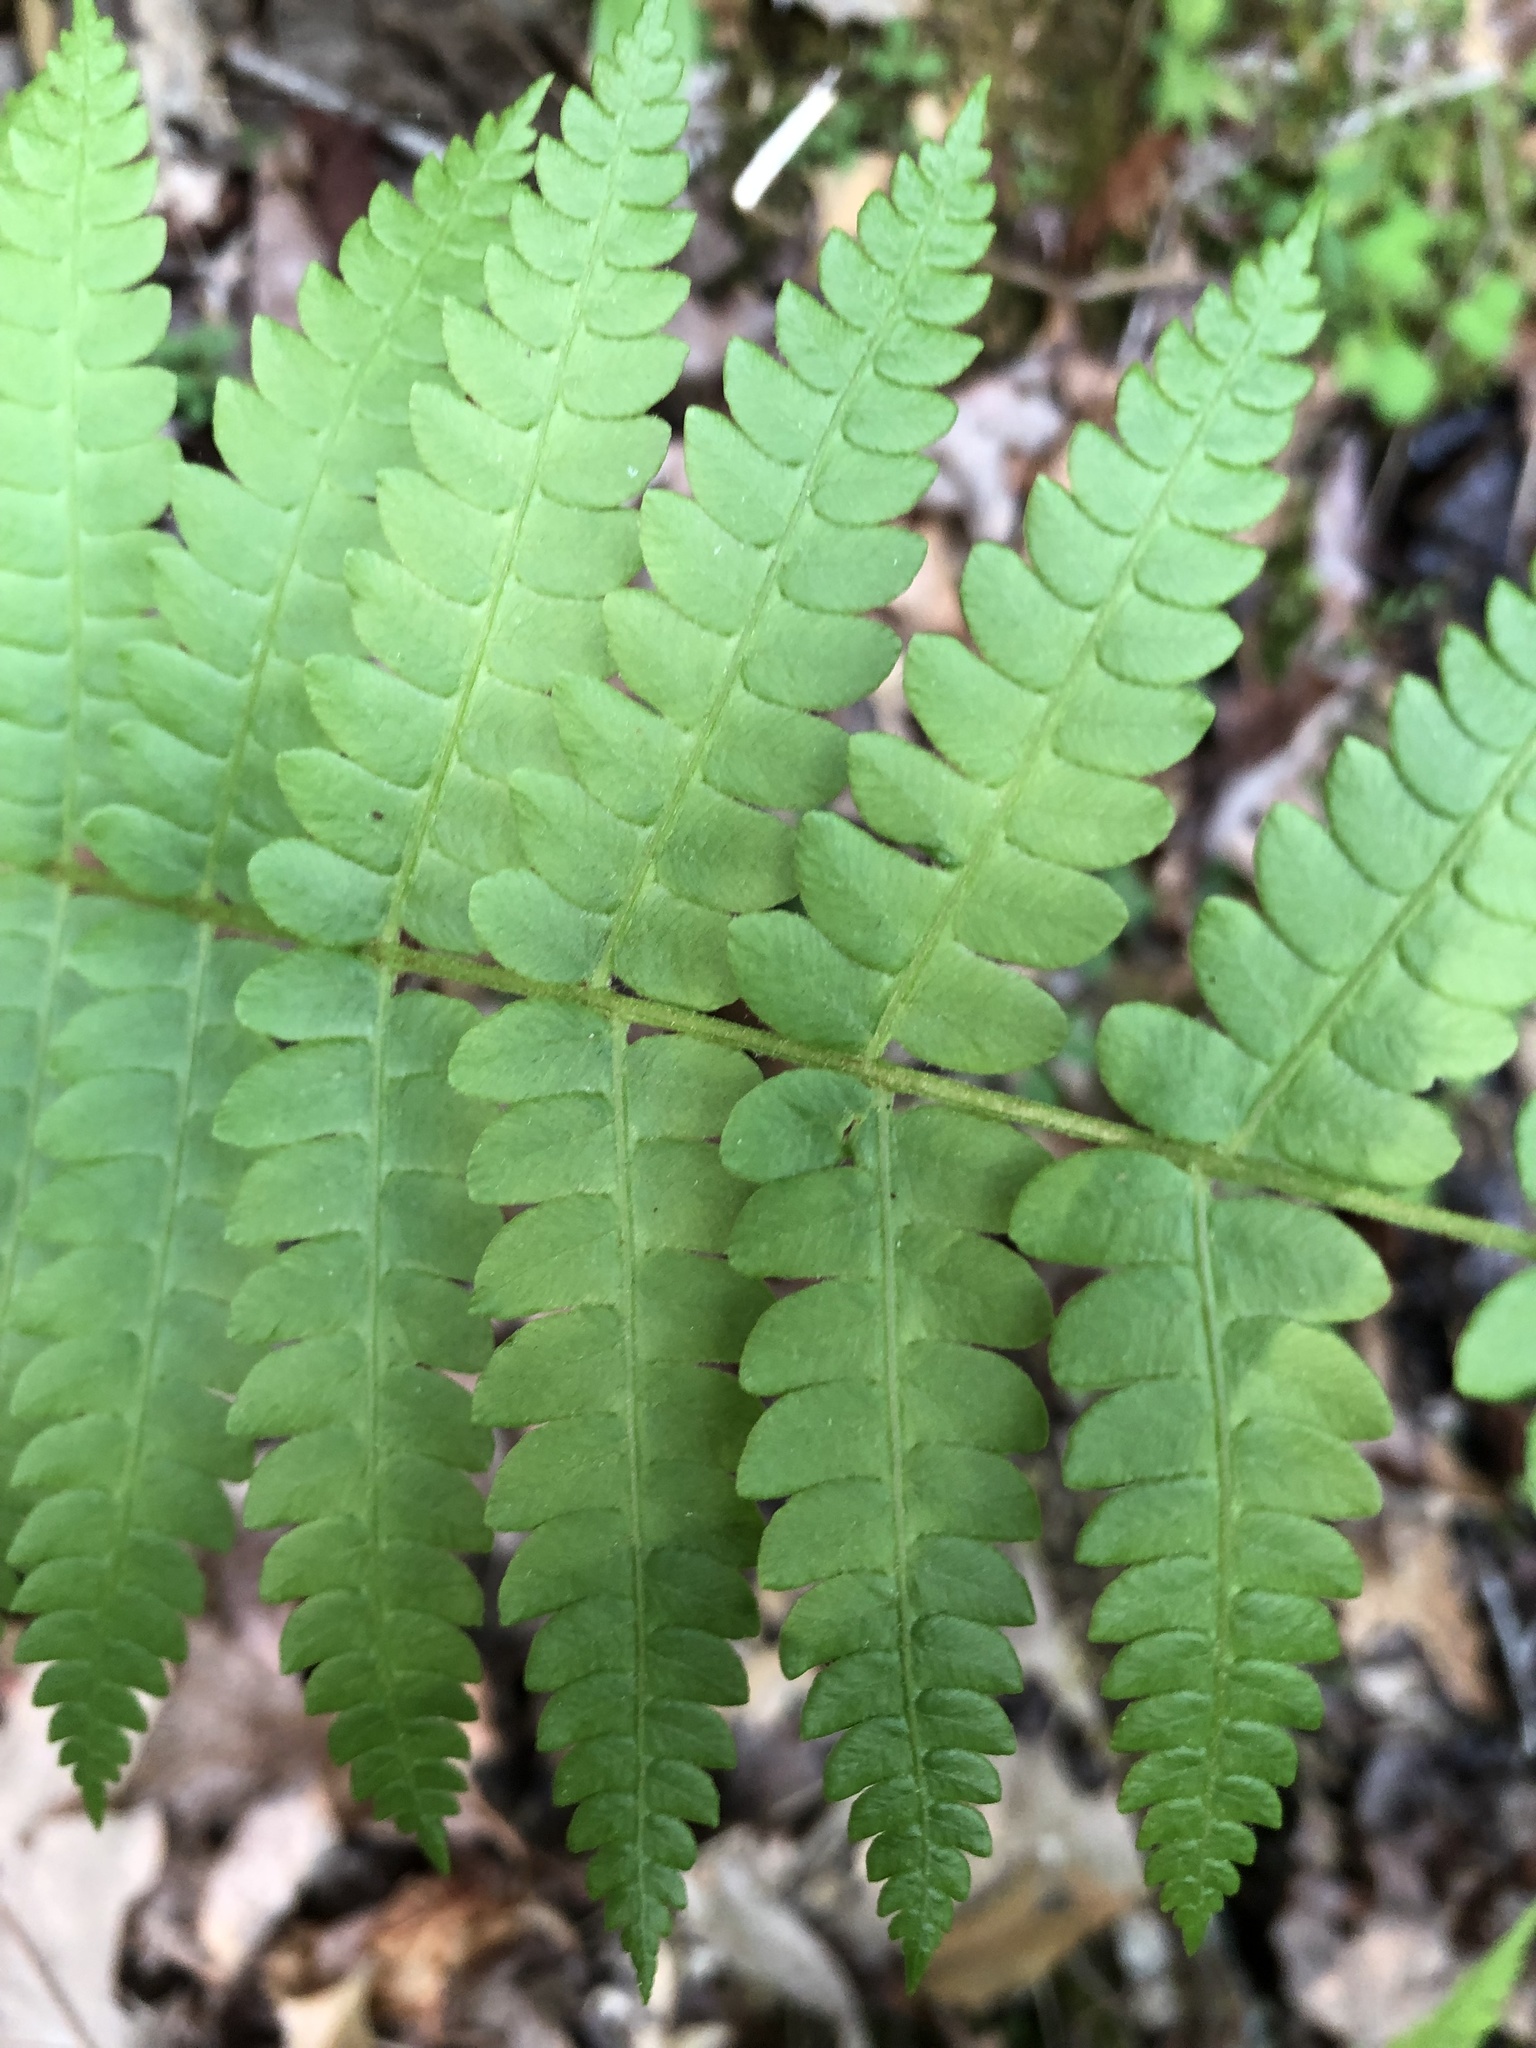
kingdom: Plantae
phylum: Tracheophyta
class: Polypodiopsida
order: Osmundales
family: Osmundaceae
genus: Osmundastrum
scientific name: Osmundastrum cinnamomeum
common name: Cinnamon fern
